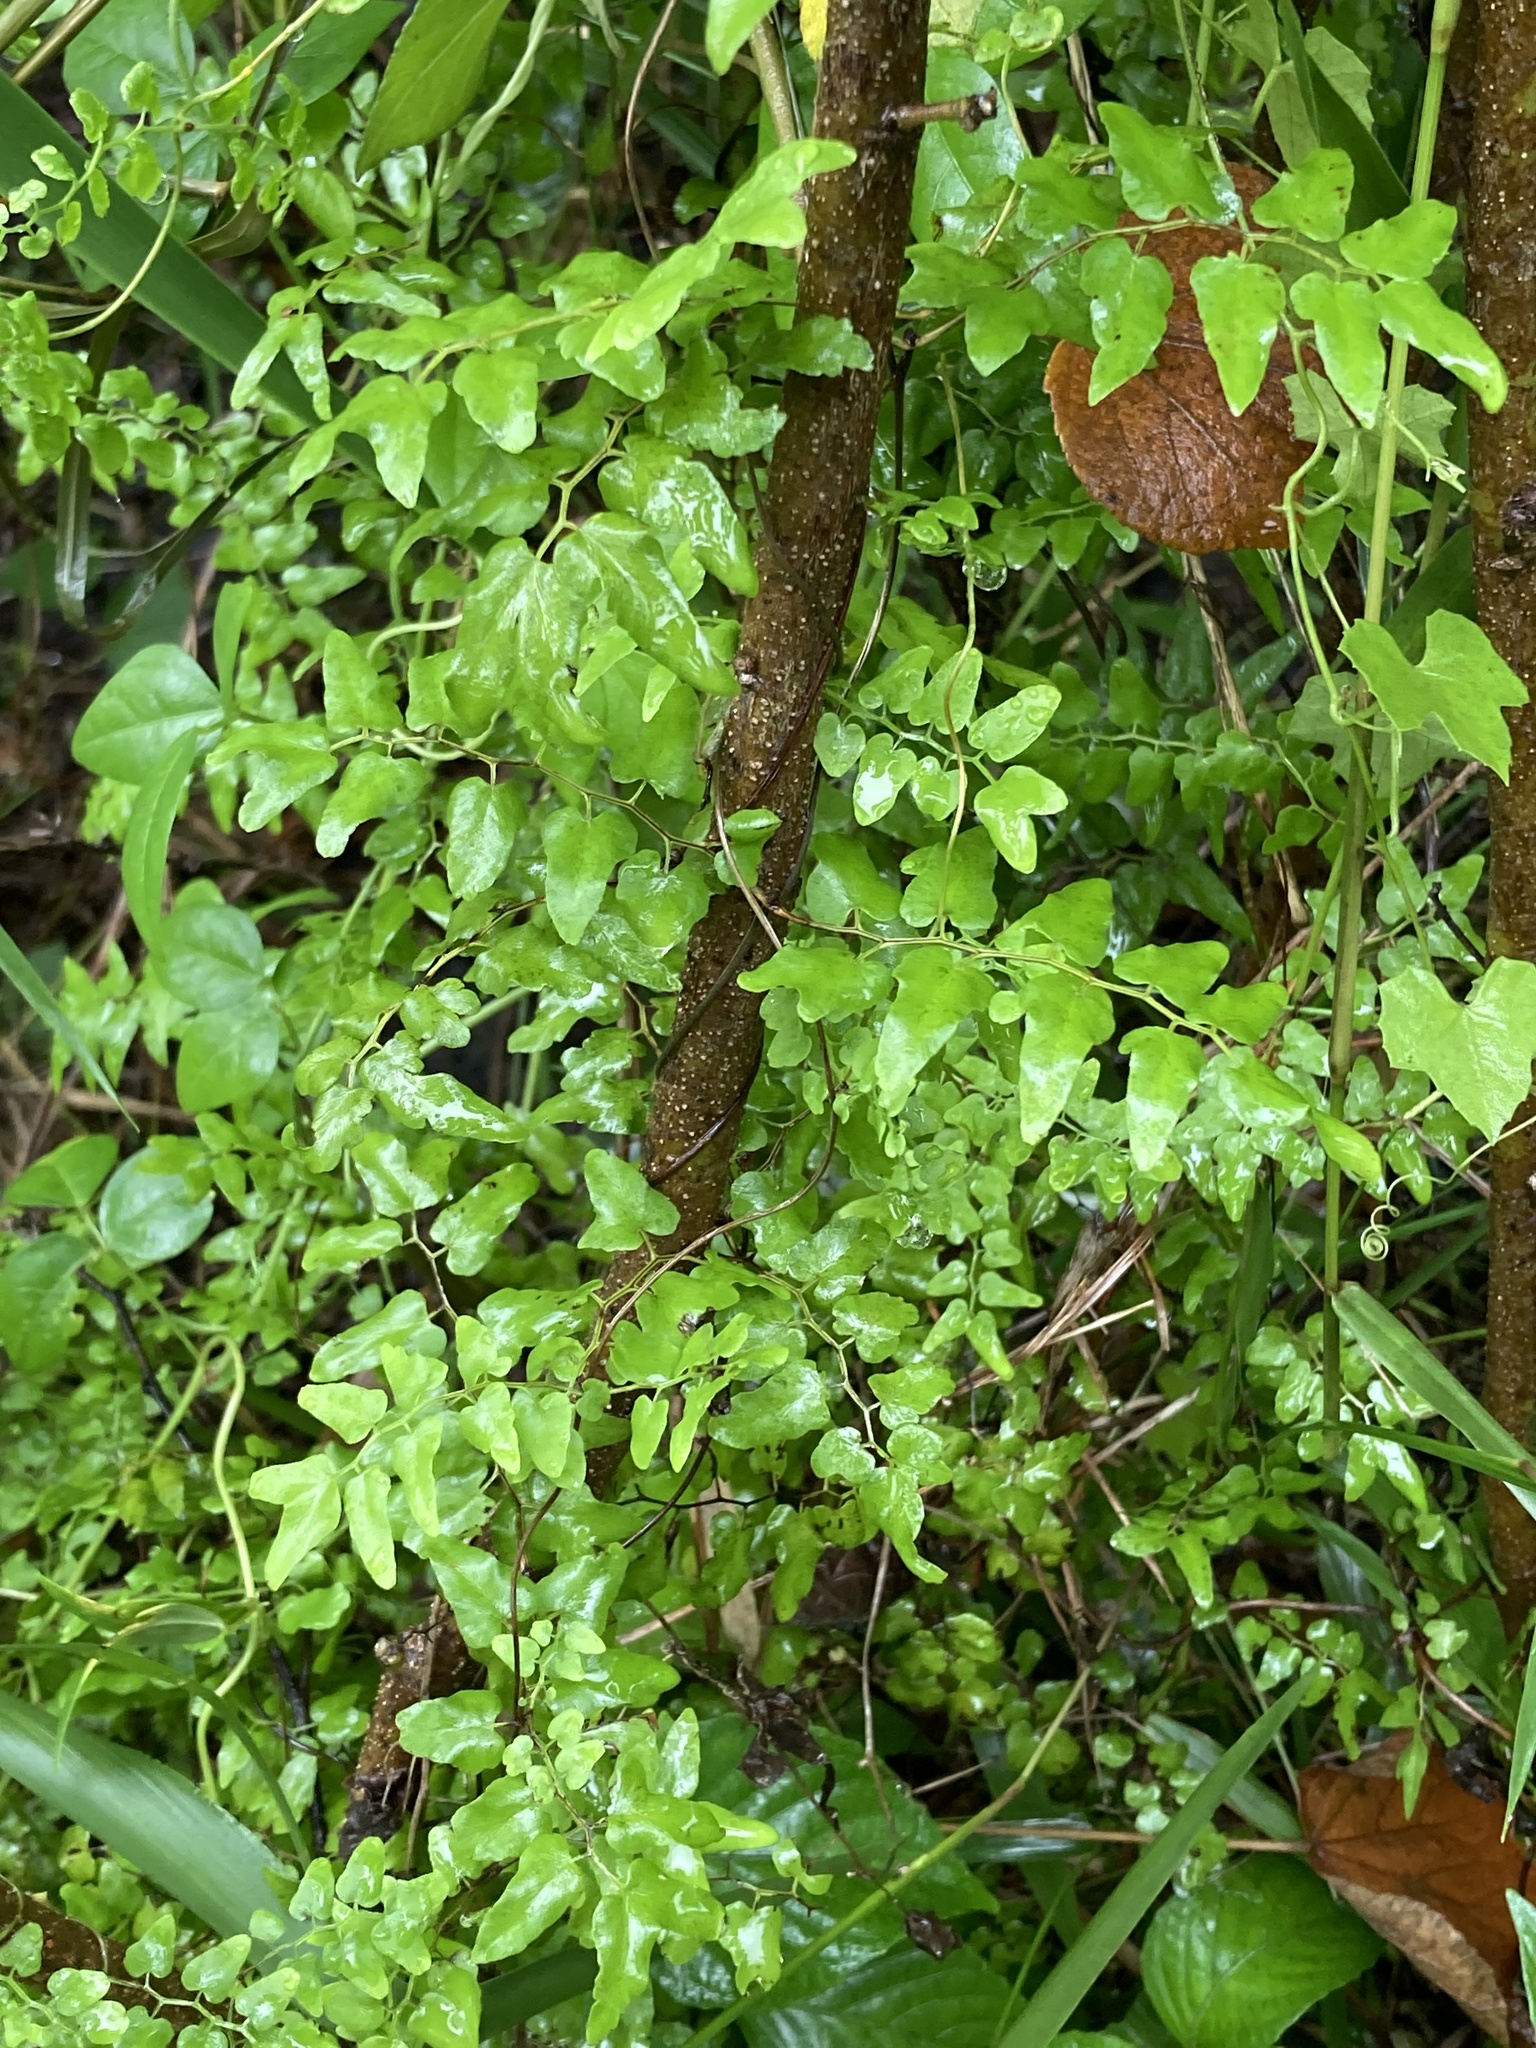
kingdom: Plantae
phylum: Tracheophyta
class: Polypodiopsida
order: Schizaeales
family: Lygodiaceae
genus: Lygodium
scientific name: Lygodium microphyllum
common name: Small-leaf climbing fern
